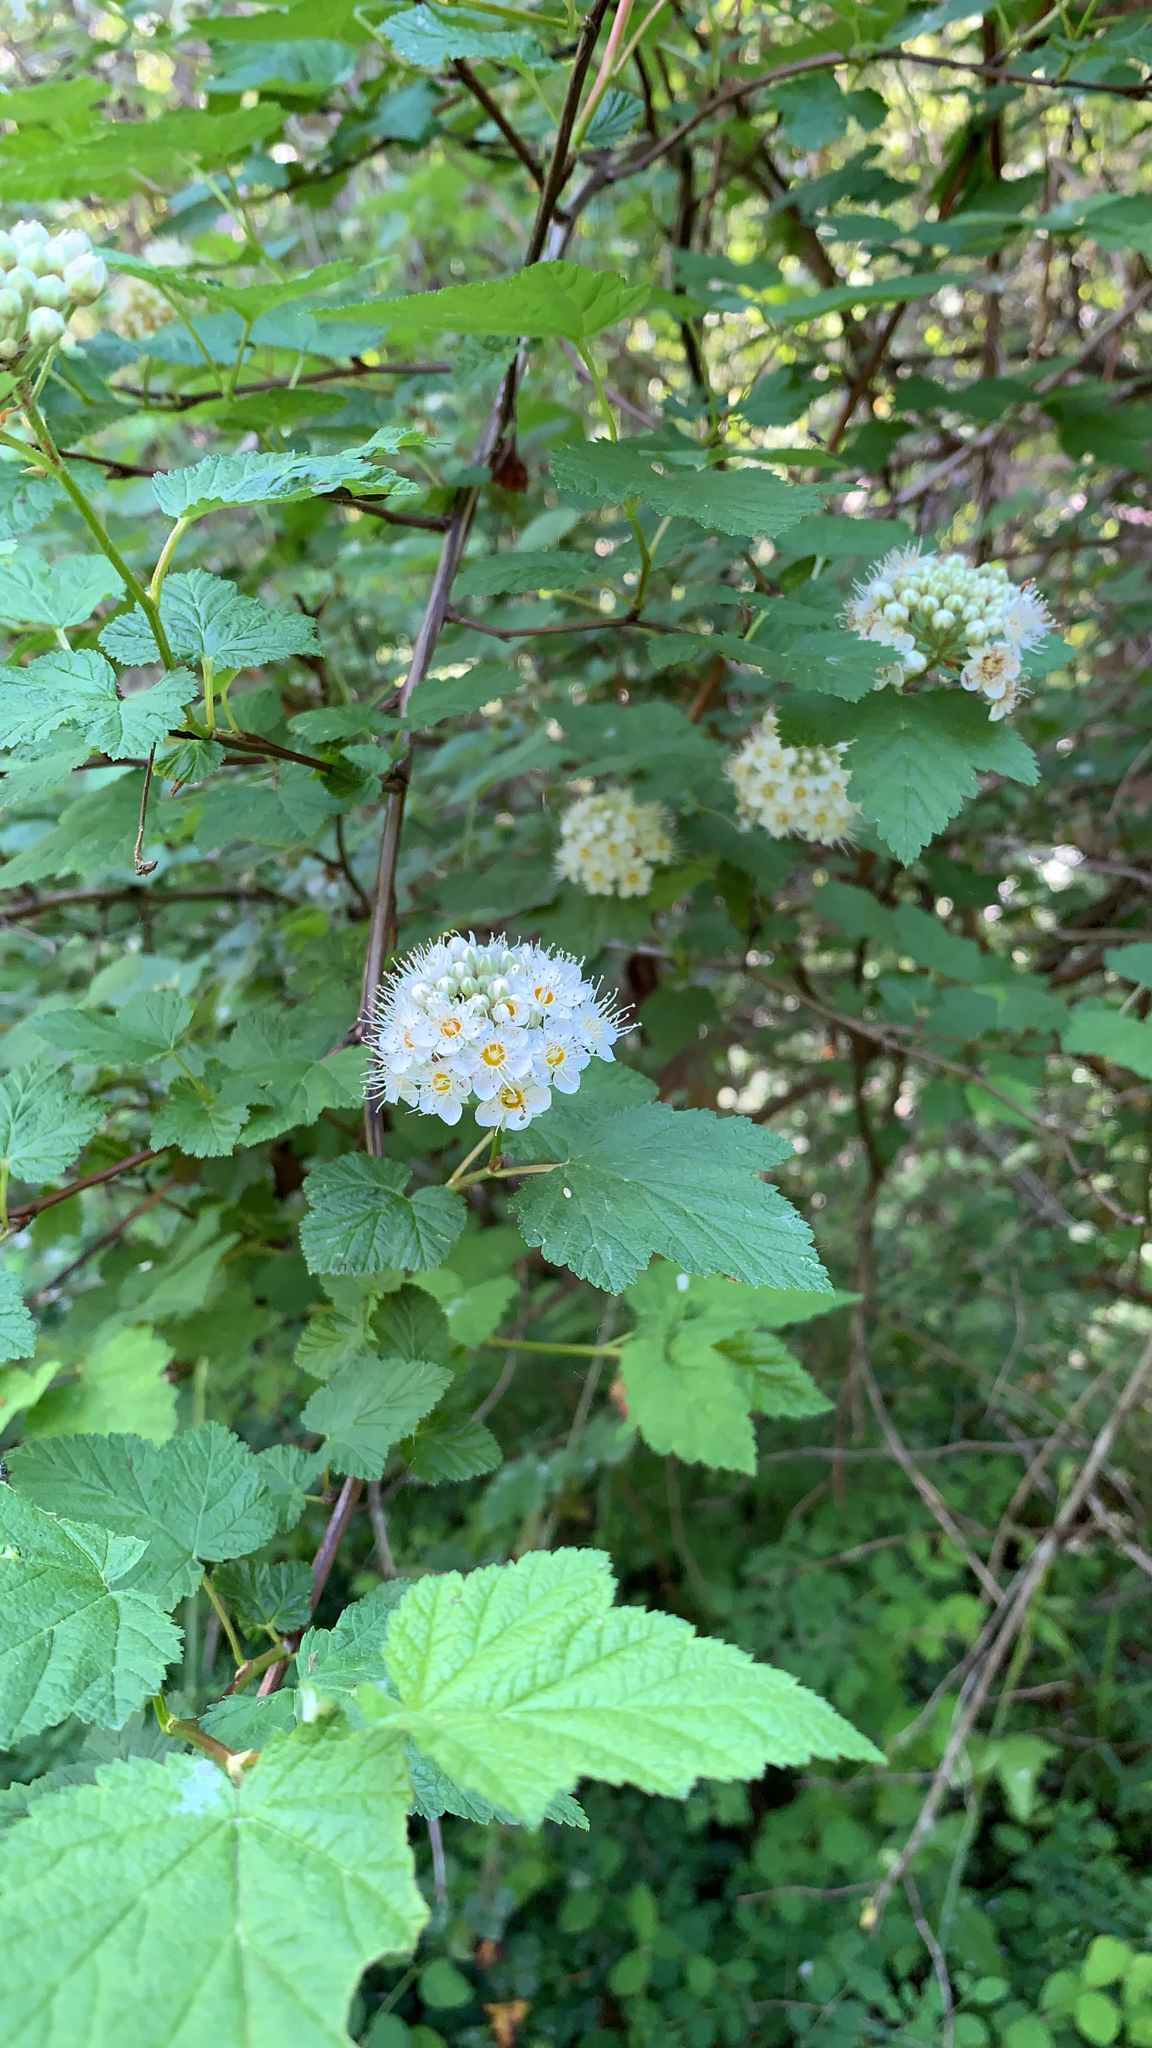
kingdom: Plantae
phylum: Tracheophyta
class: Magnoliopsida
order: Rosales
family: Rosaceae
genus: Physocarpus
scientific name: Physocarpus capitatus
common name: Pacific ninebark
